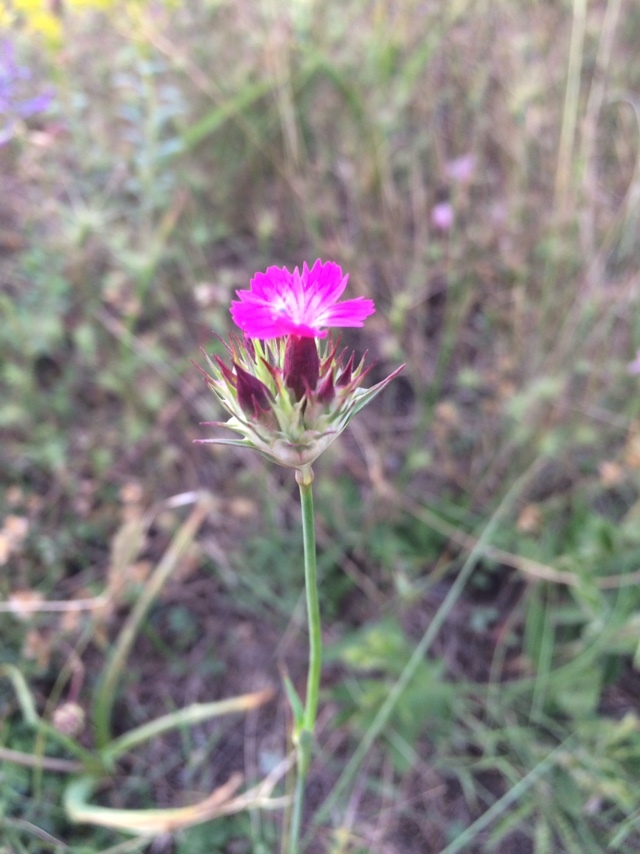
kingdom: Plantae
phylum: Tracheophyta
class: Magnoliopsida
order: Caryophyllales
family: Caryophyllaceae
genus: Dianthus
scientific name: Dianthus capitatus
